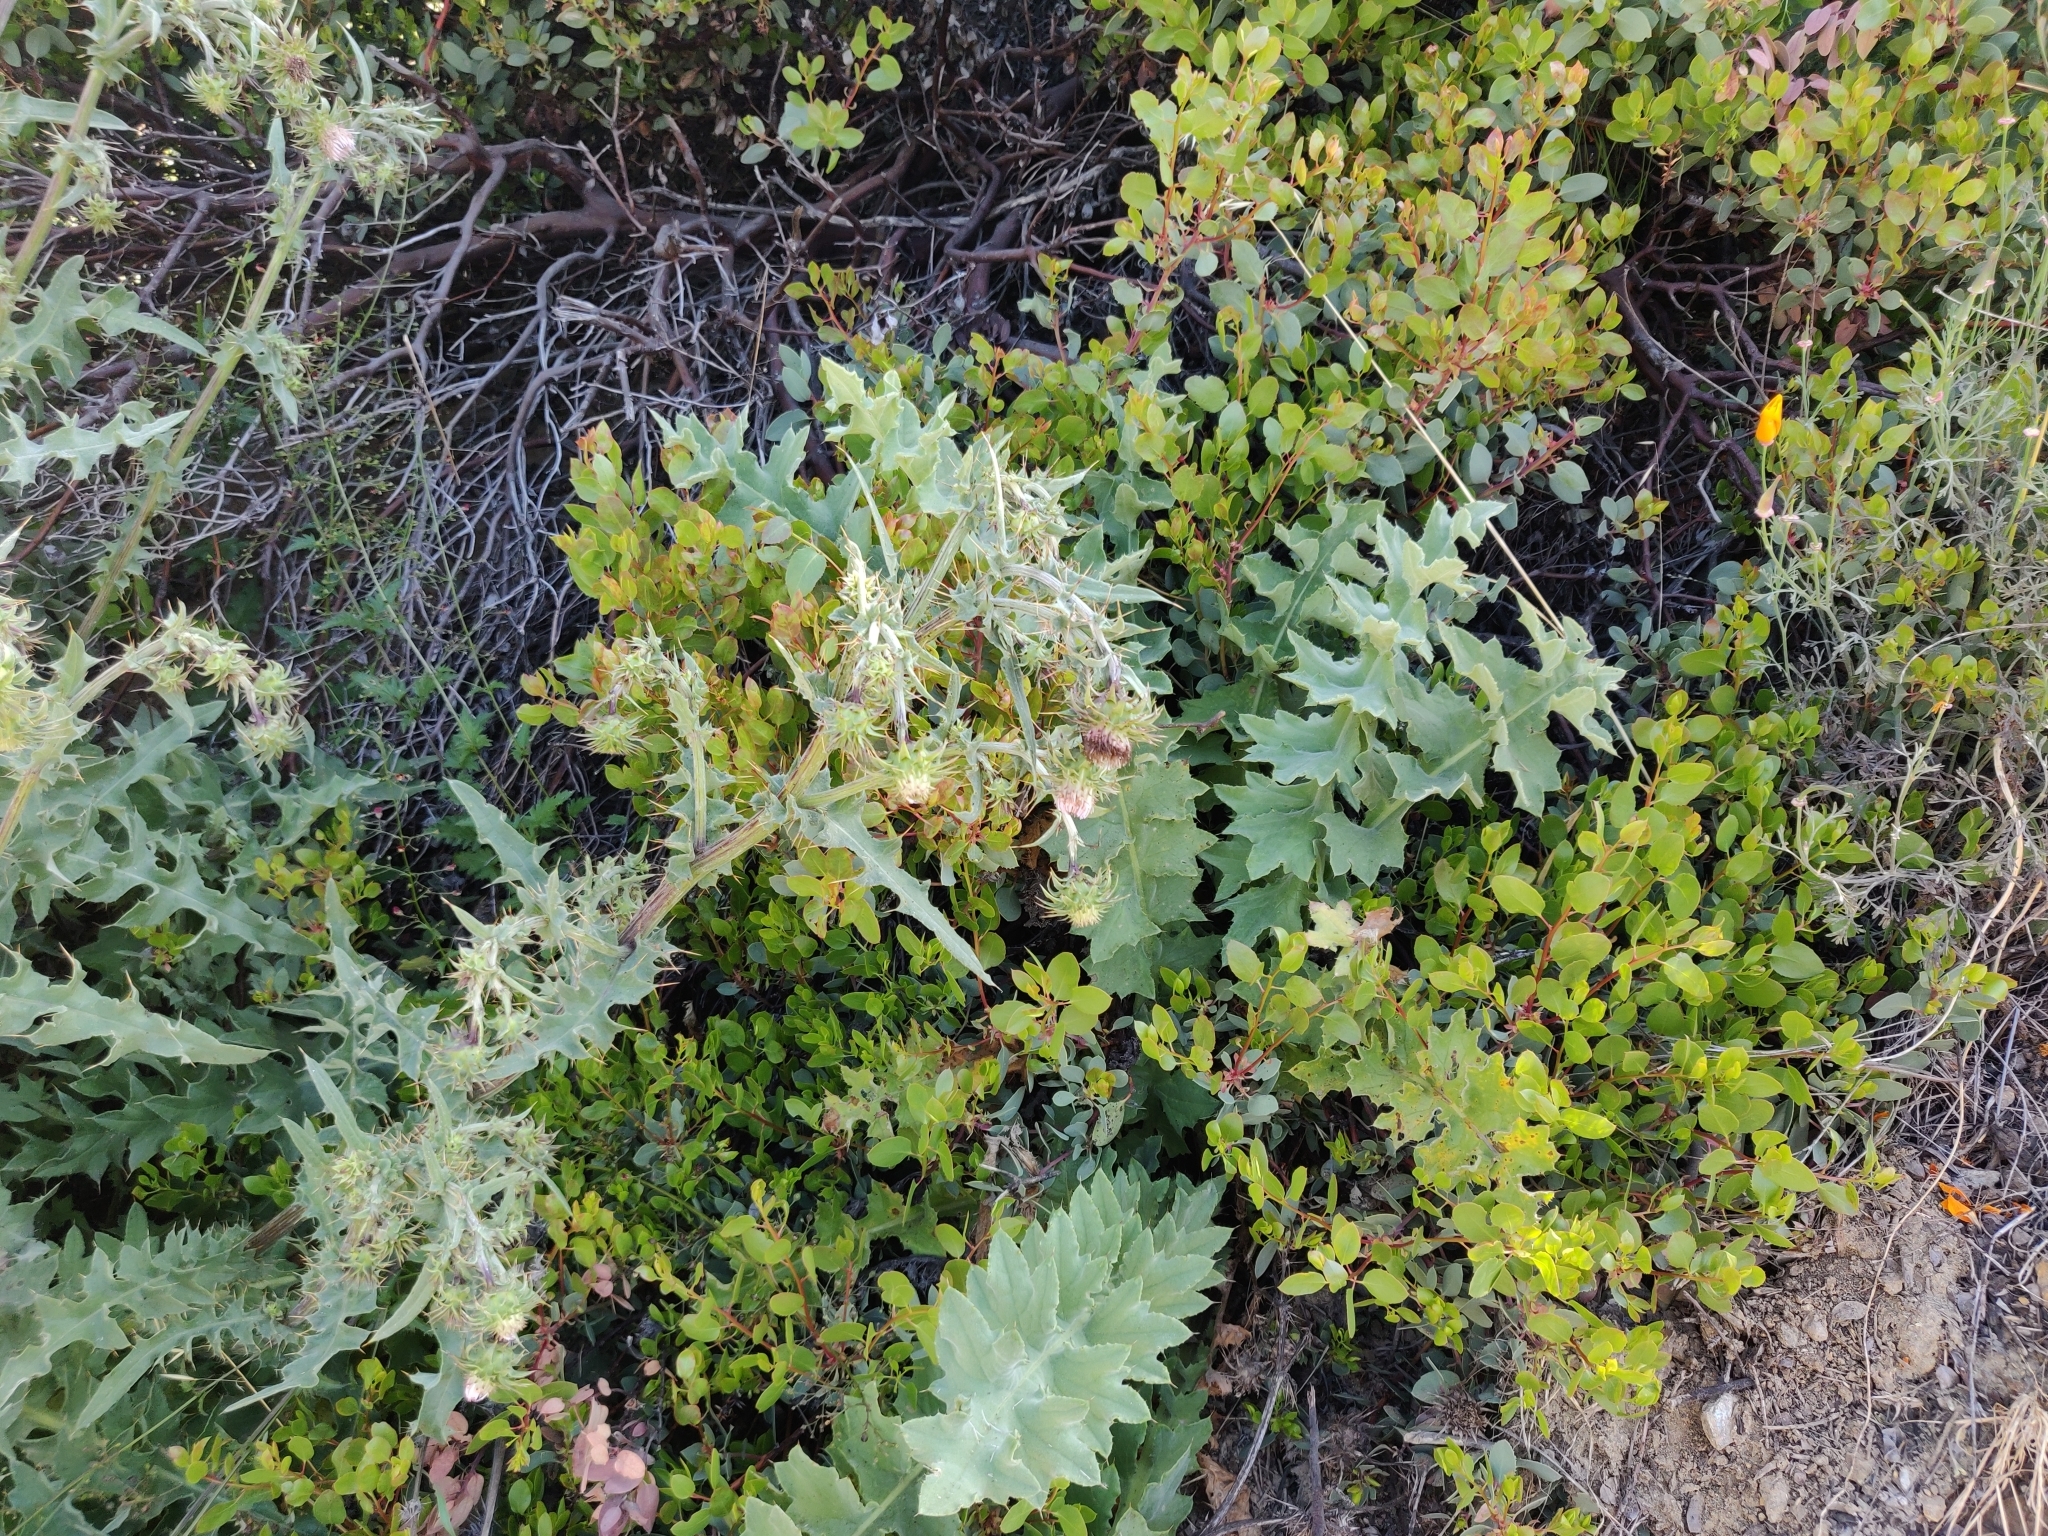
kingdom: Plantae
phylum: Tracheophyta
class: Magnoliopsida
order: Asterales
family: Asteraceae
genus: Cirsium
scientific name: Cirsium fontinale
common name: Fountain thistle
